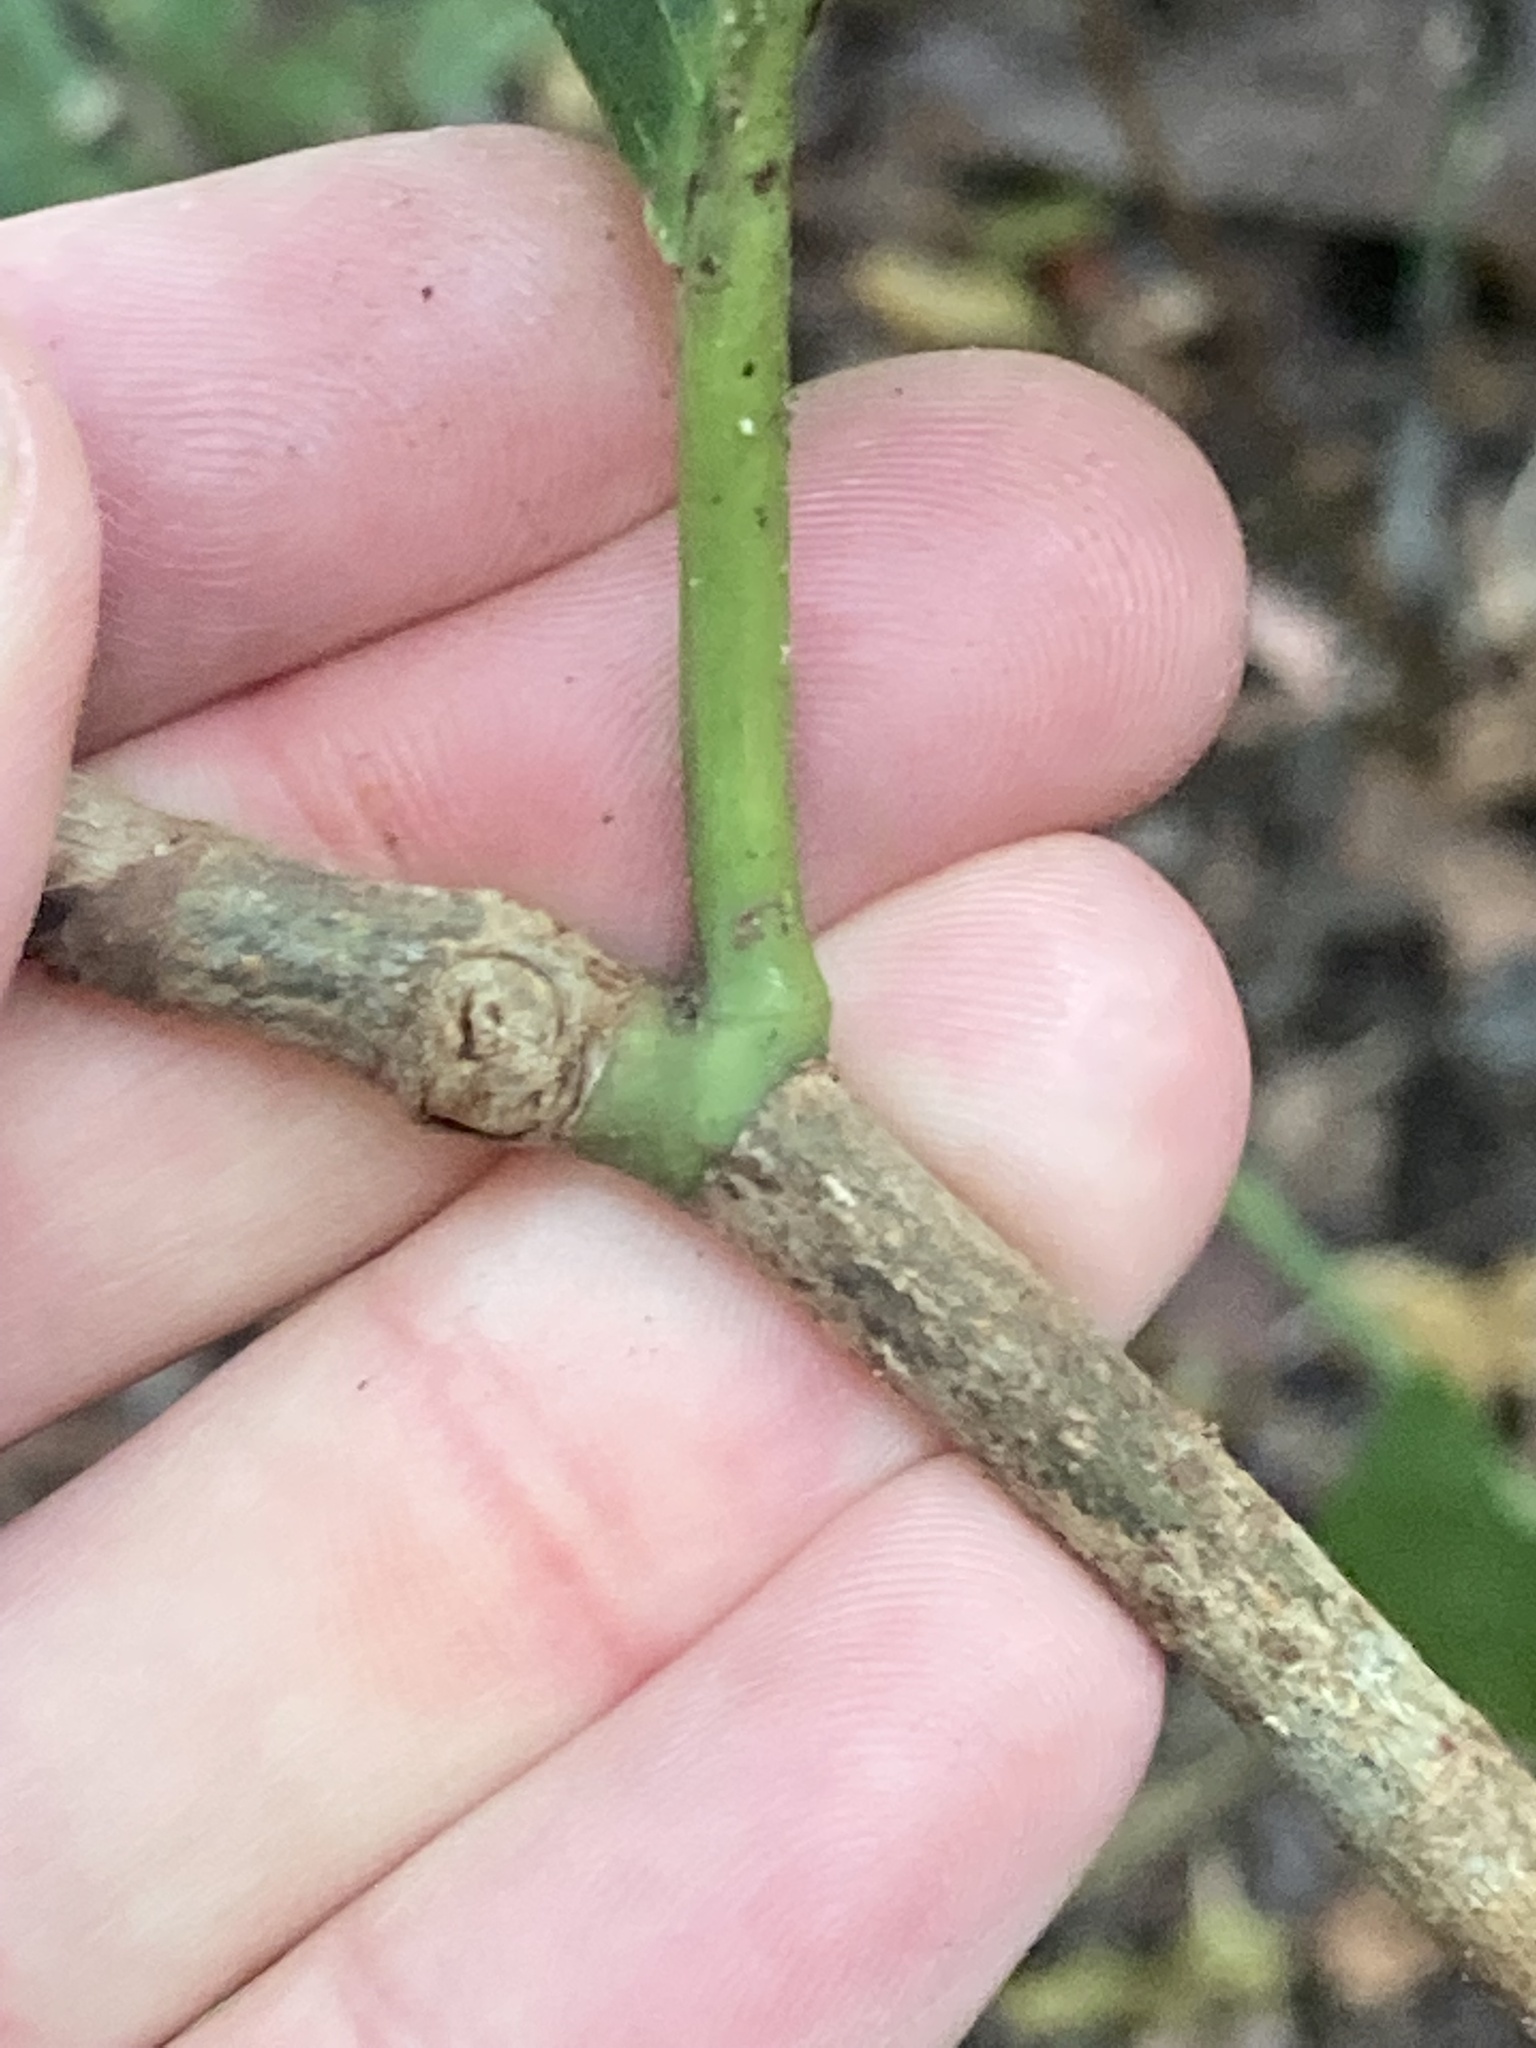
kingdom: Plantae
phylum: Tracheophyta
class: Magnoliopsida
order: Caryophyllales
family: Polygonaceae
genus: Coccoloba
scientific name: Coccoloba diversifolia
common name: Pigeon-plum
